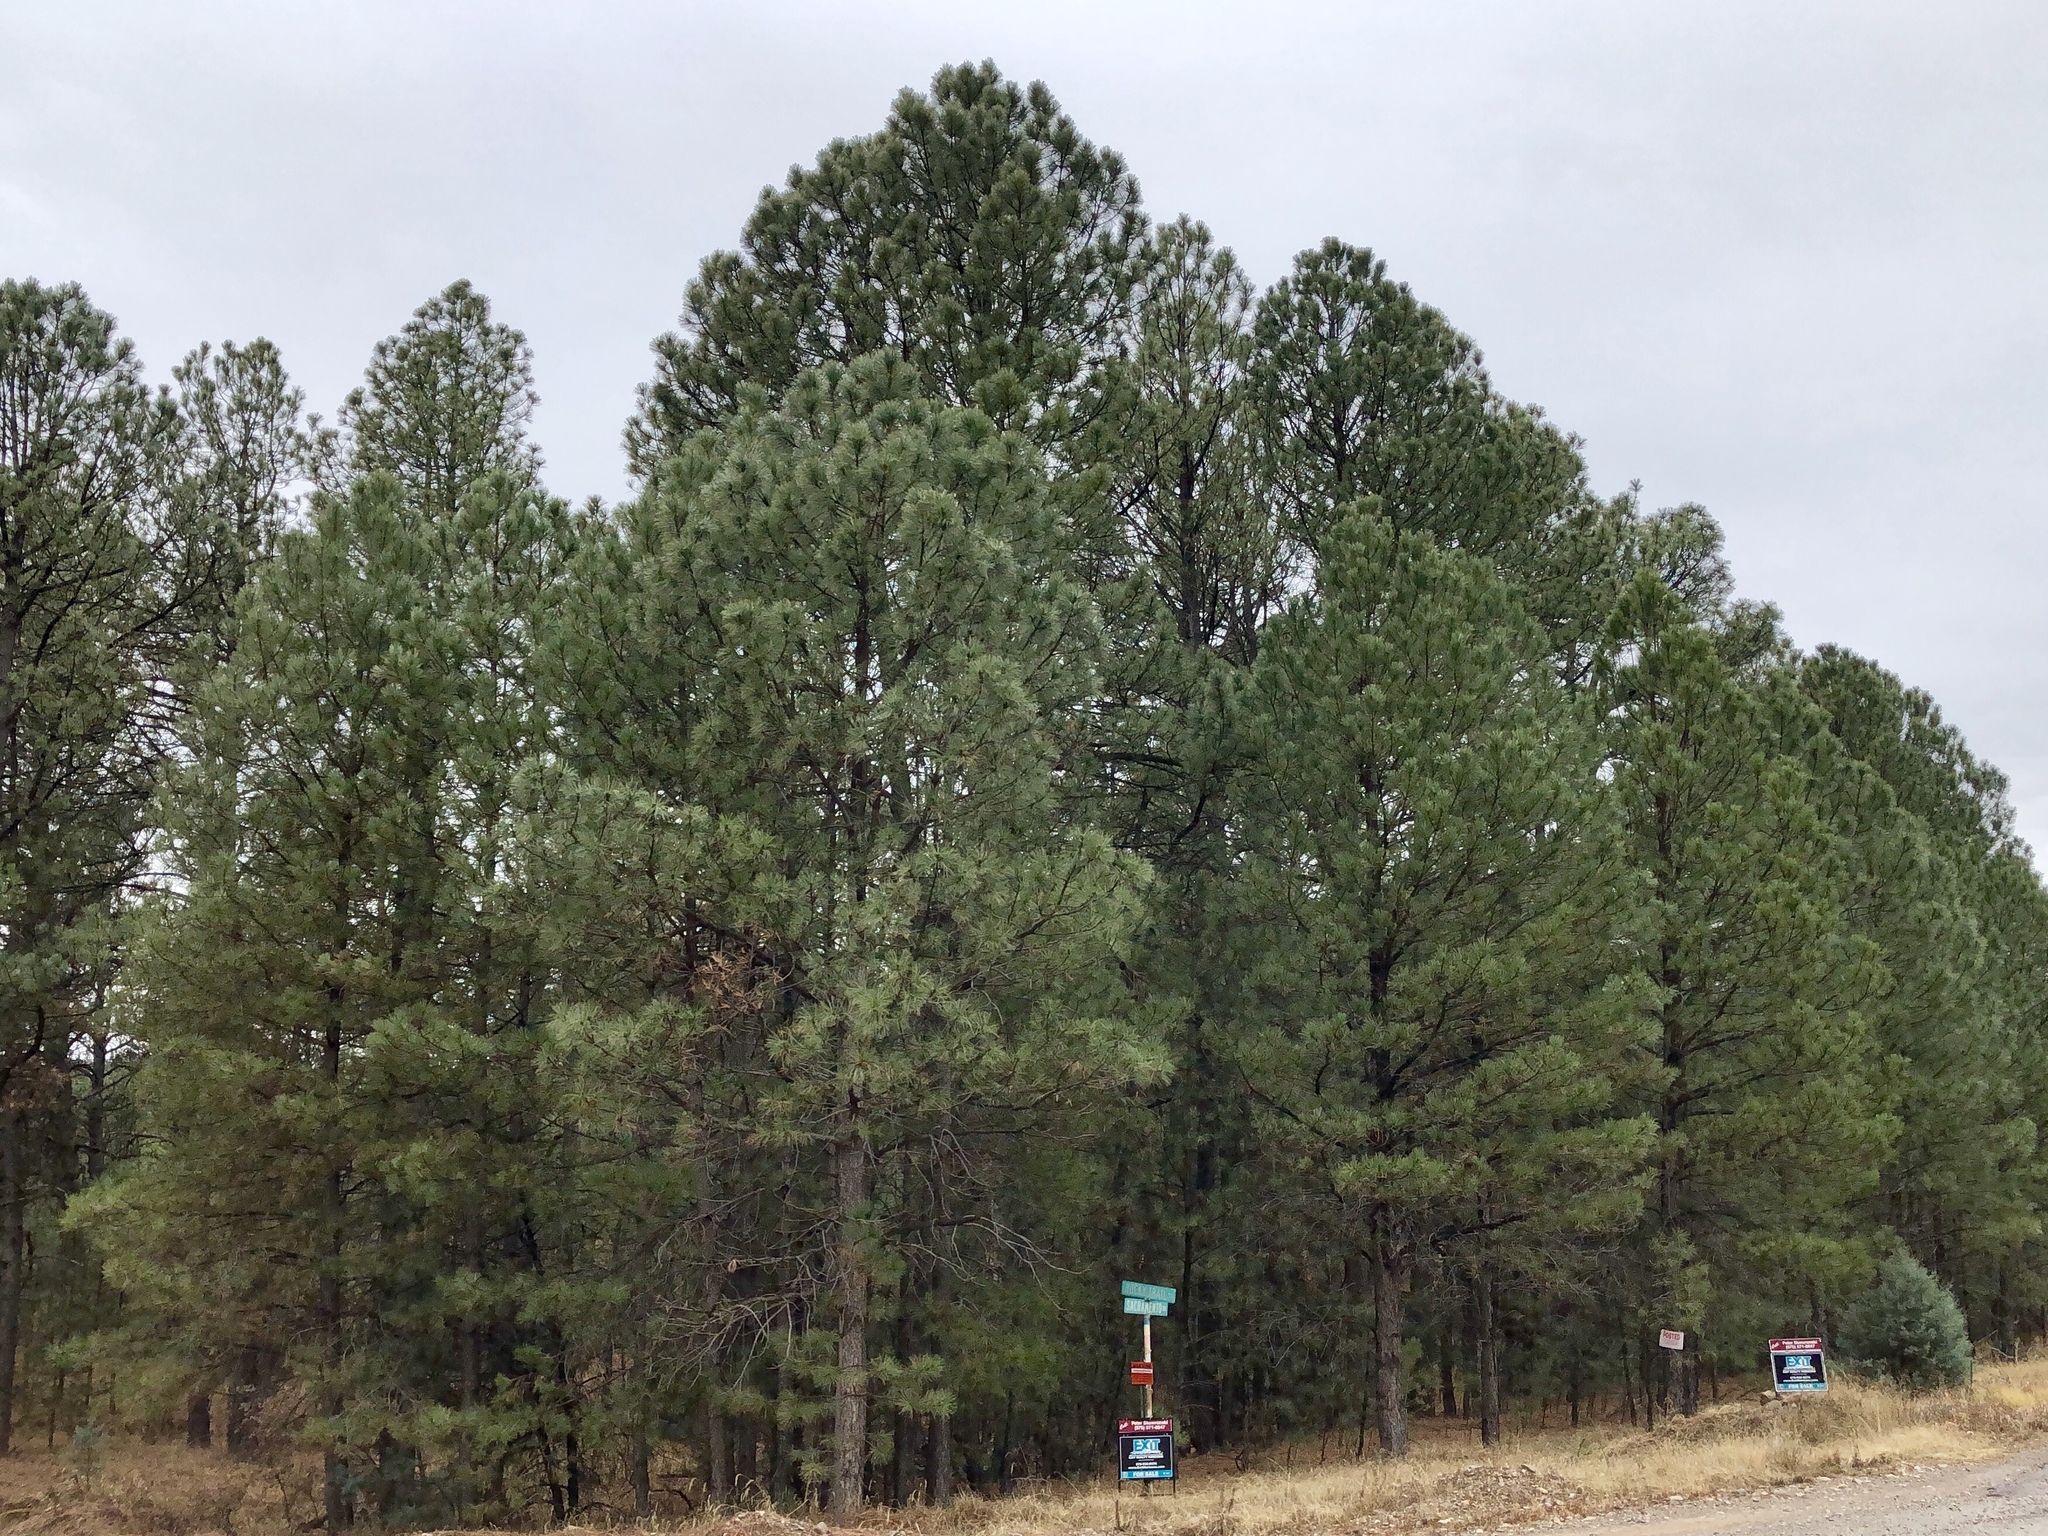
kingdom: Plantae
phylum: Tracheophyta
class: Pinopsida
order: Pinales
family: Pinaceae
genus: Pinus
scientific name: Pinus ponderosa
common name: Western yellow-pine
